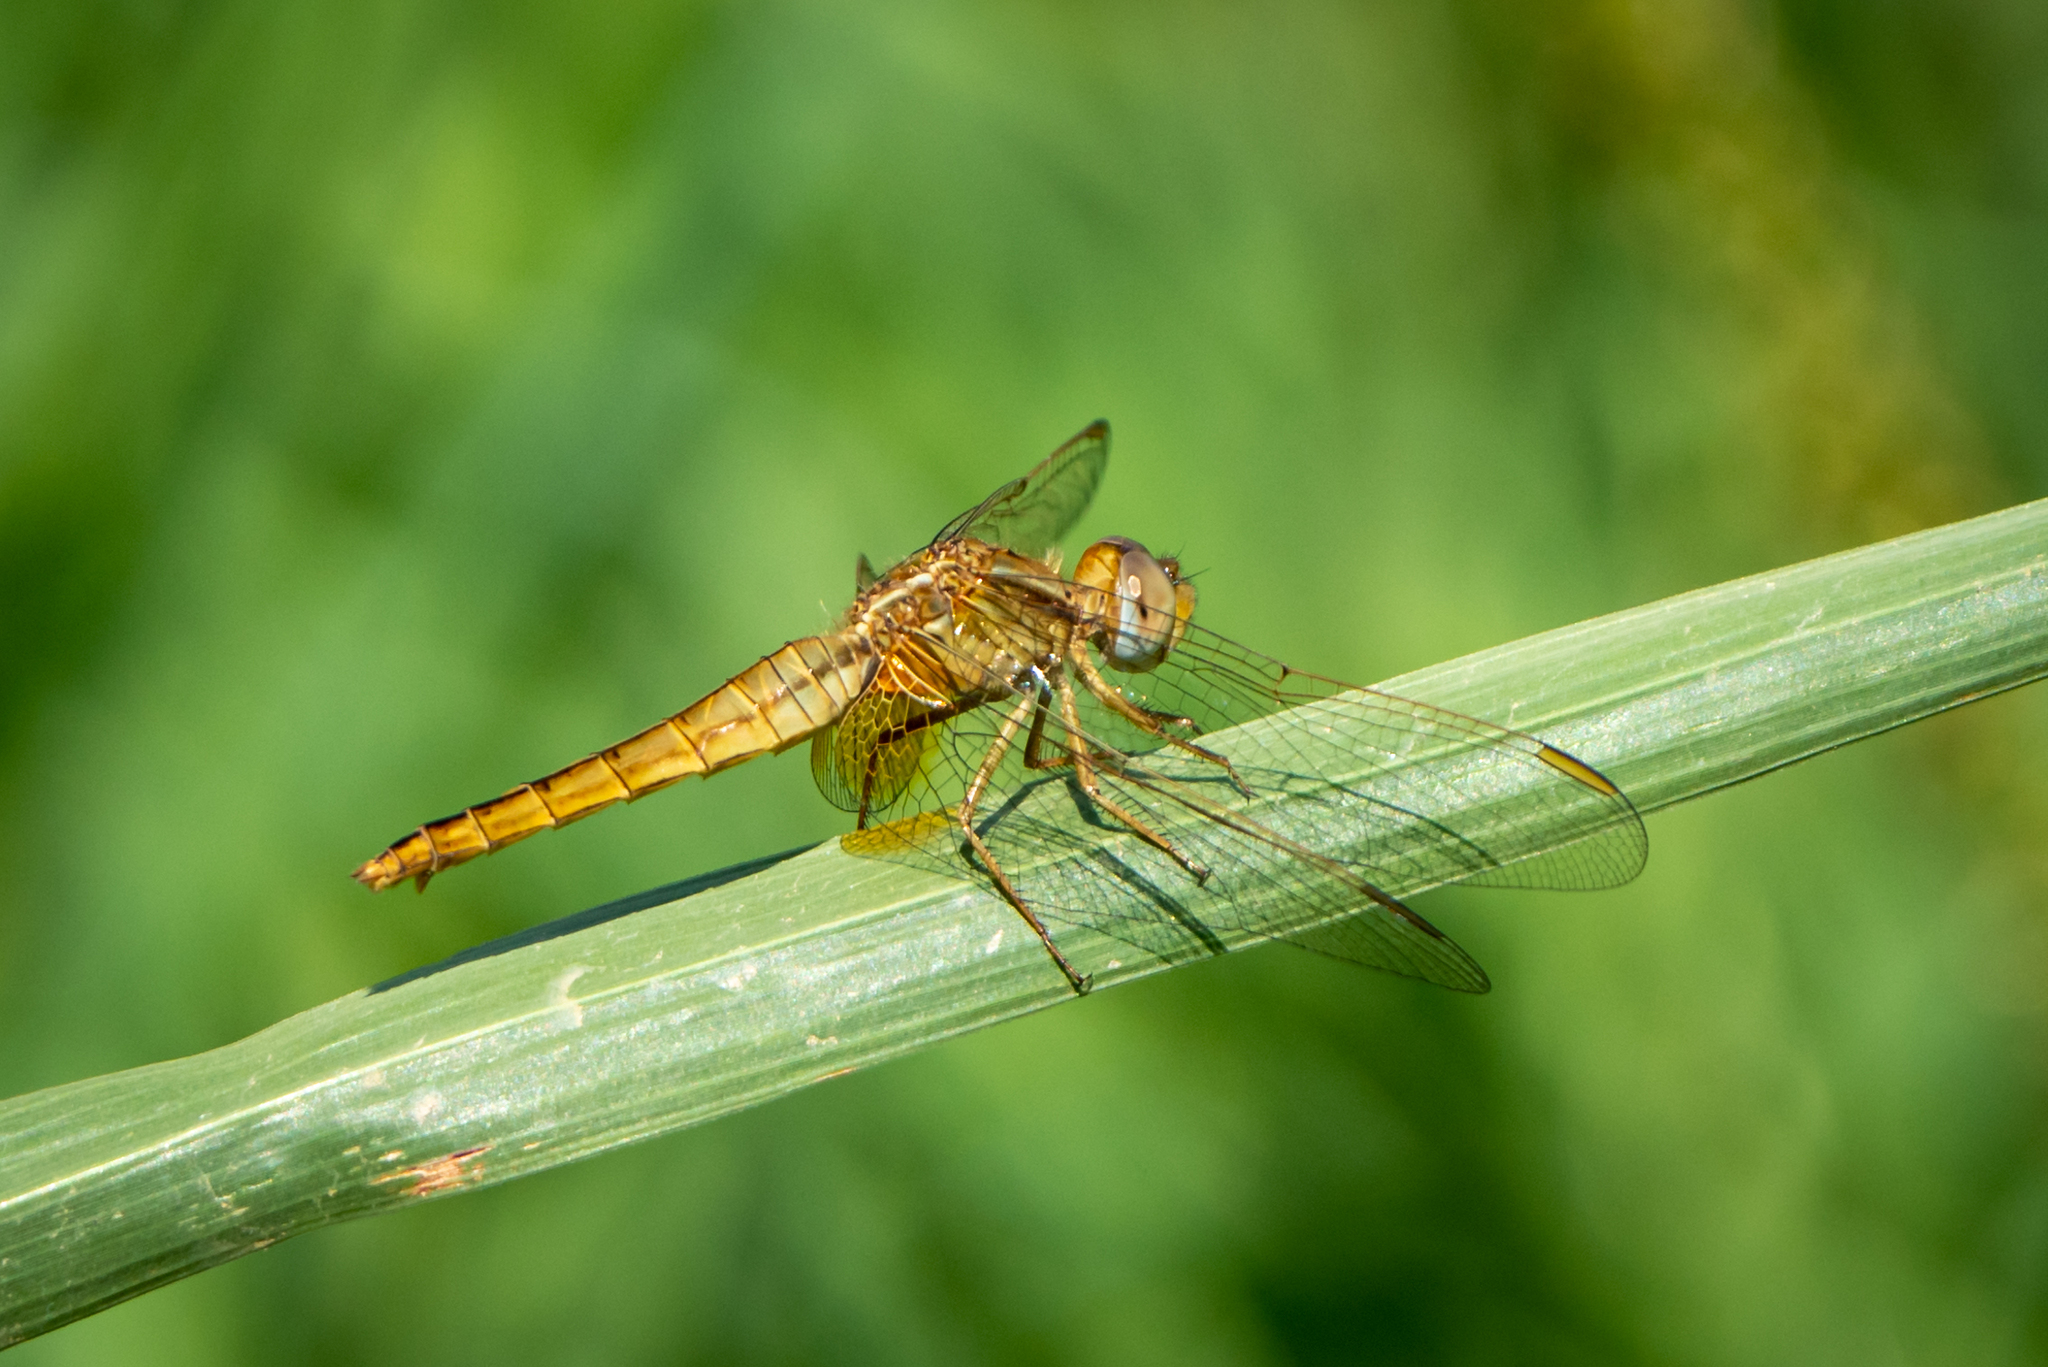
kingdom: Animalia
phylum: Arthropoda
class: Insecta
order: Odonata
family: Libellulidae
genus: Crocothemis
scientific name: Crocothemis erythraea
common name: Scarlet dragonfly
